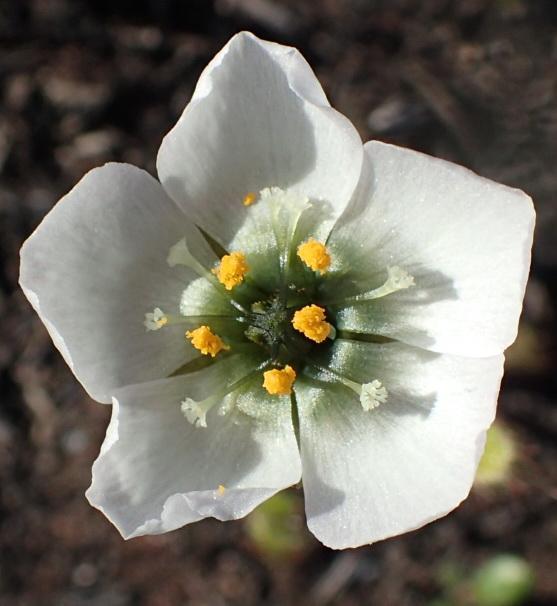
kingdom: Plantae
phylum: Tracheophyta
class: Magnoliopsida
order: Caryophyllales
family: Droseraceae
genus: Drosera
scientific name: Drosera cistiflora
